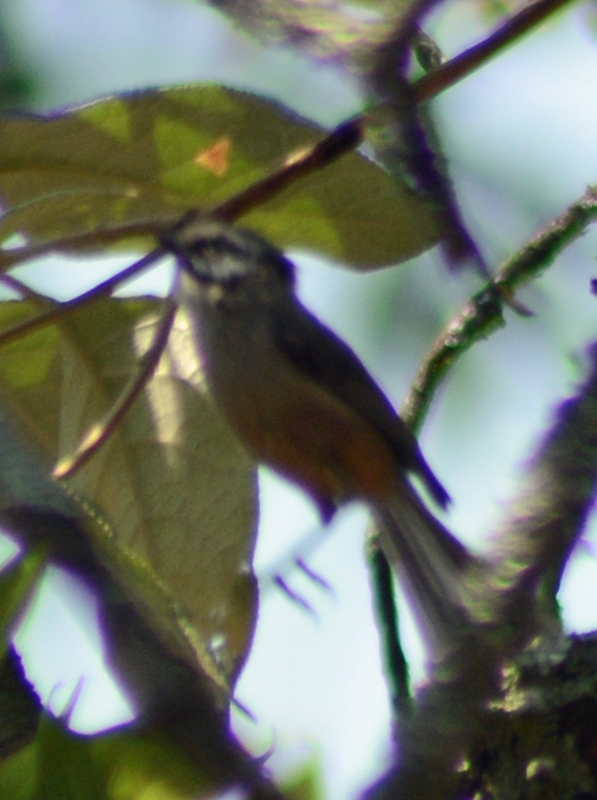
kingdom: Animalia
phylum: Chordata
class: Aves
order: Passeriformes
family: Aegithalidae
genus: Psaltriparus
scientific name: Psaltriparus minimus
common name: American bushtit
